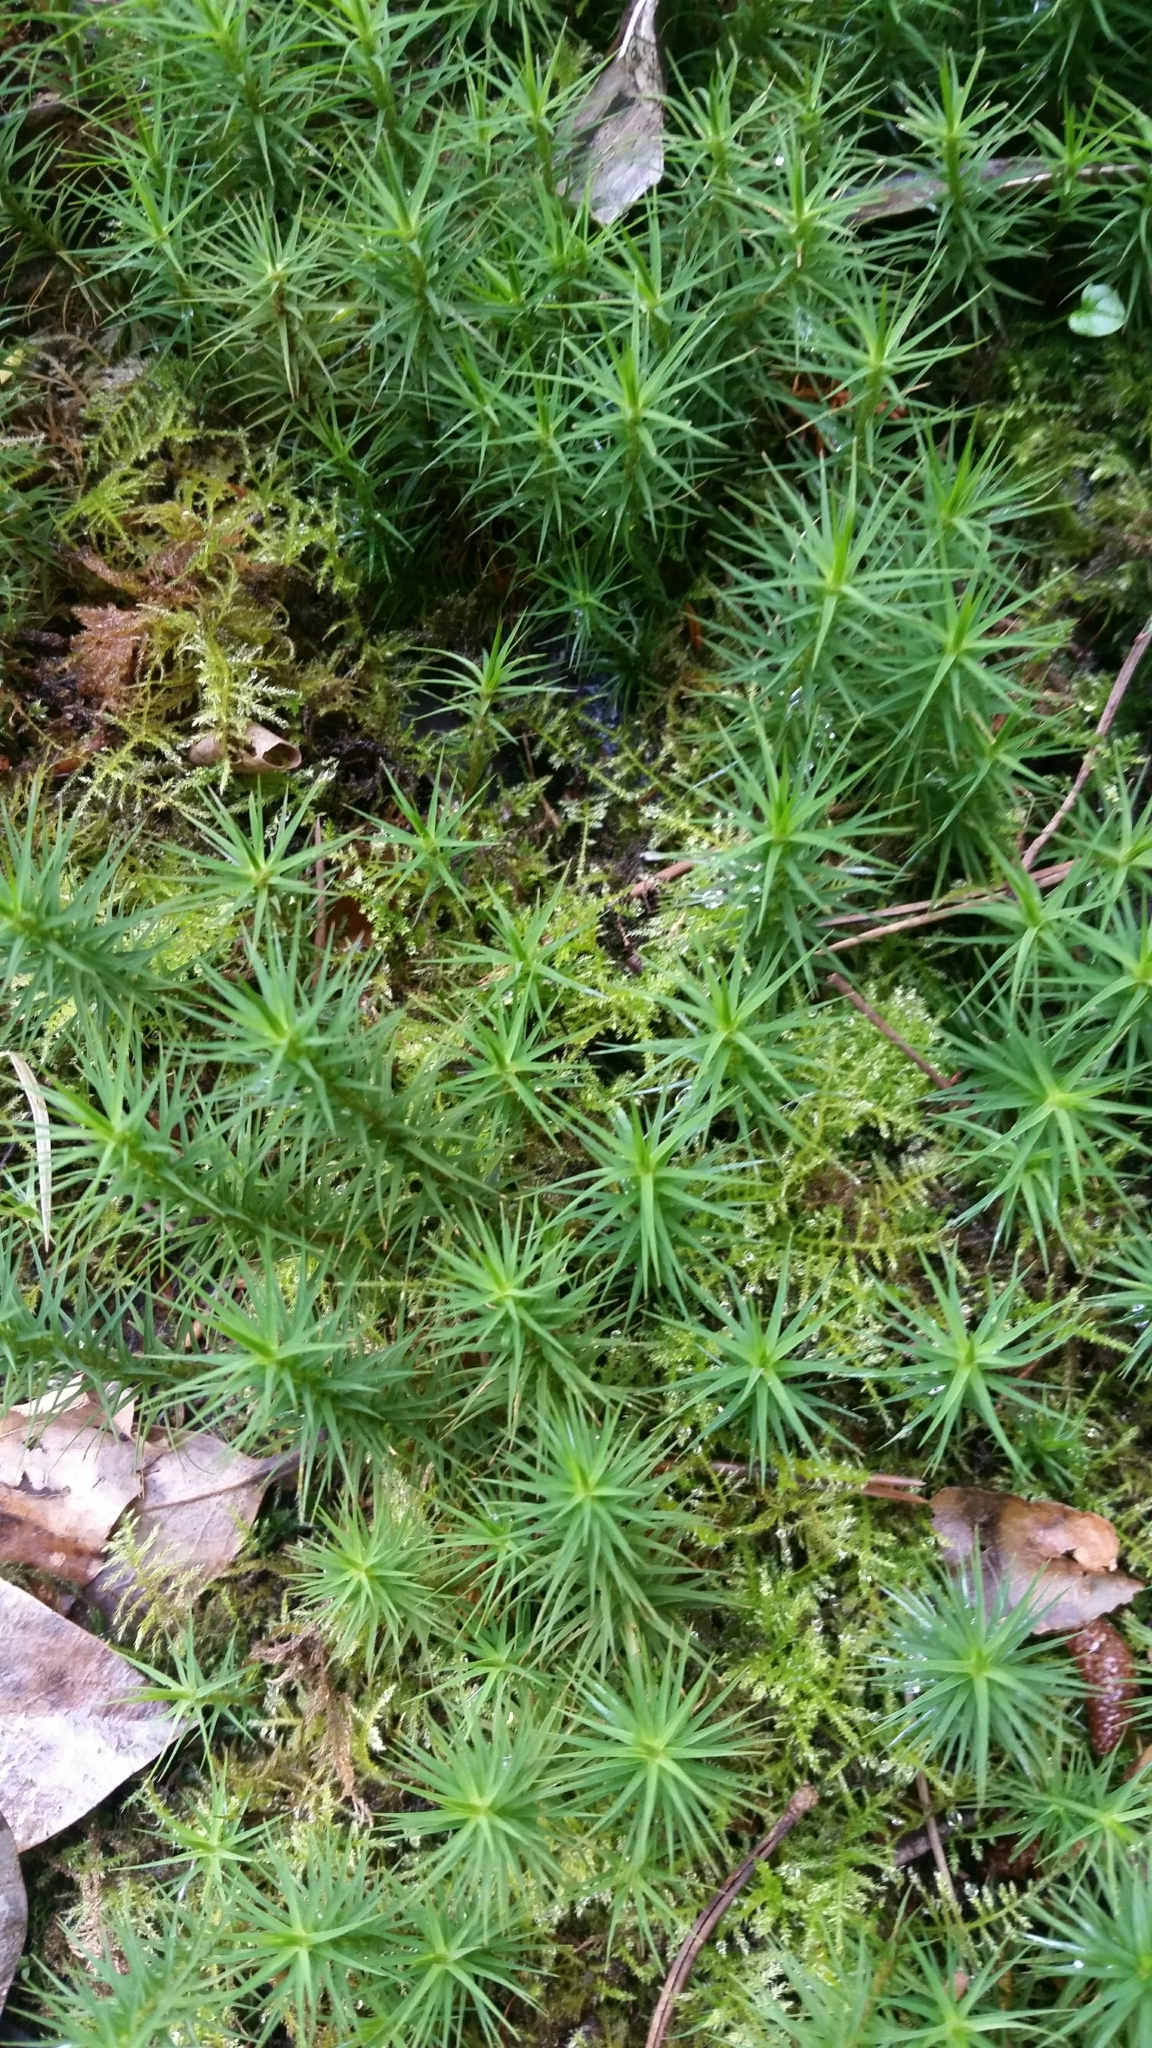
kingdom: Plantae
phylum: Bryophyta
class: Polytrichopsida
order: Polytrichales
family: Polytrichaceae
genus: Polytrichum
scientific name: Polytrichum commune
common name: Common haircap
